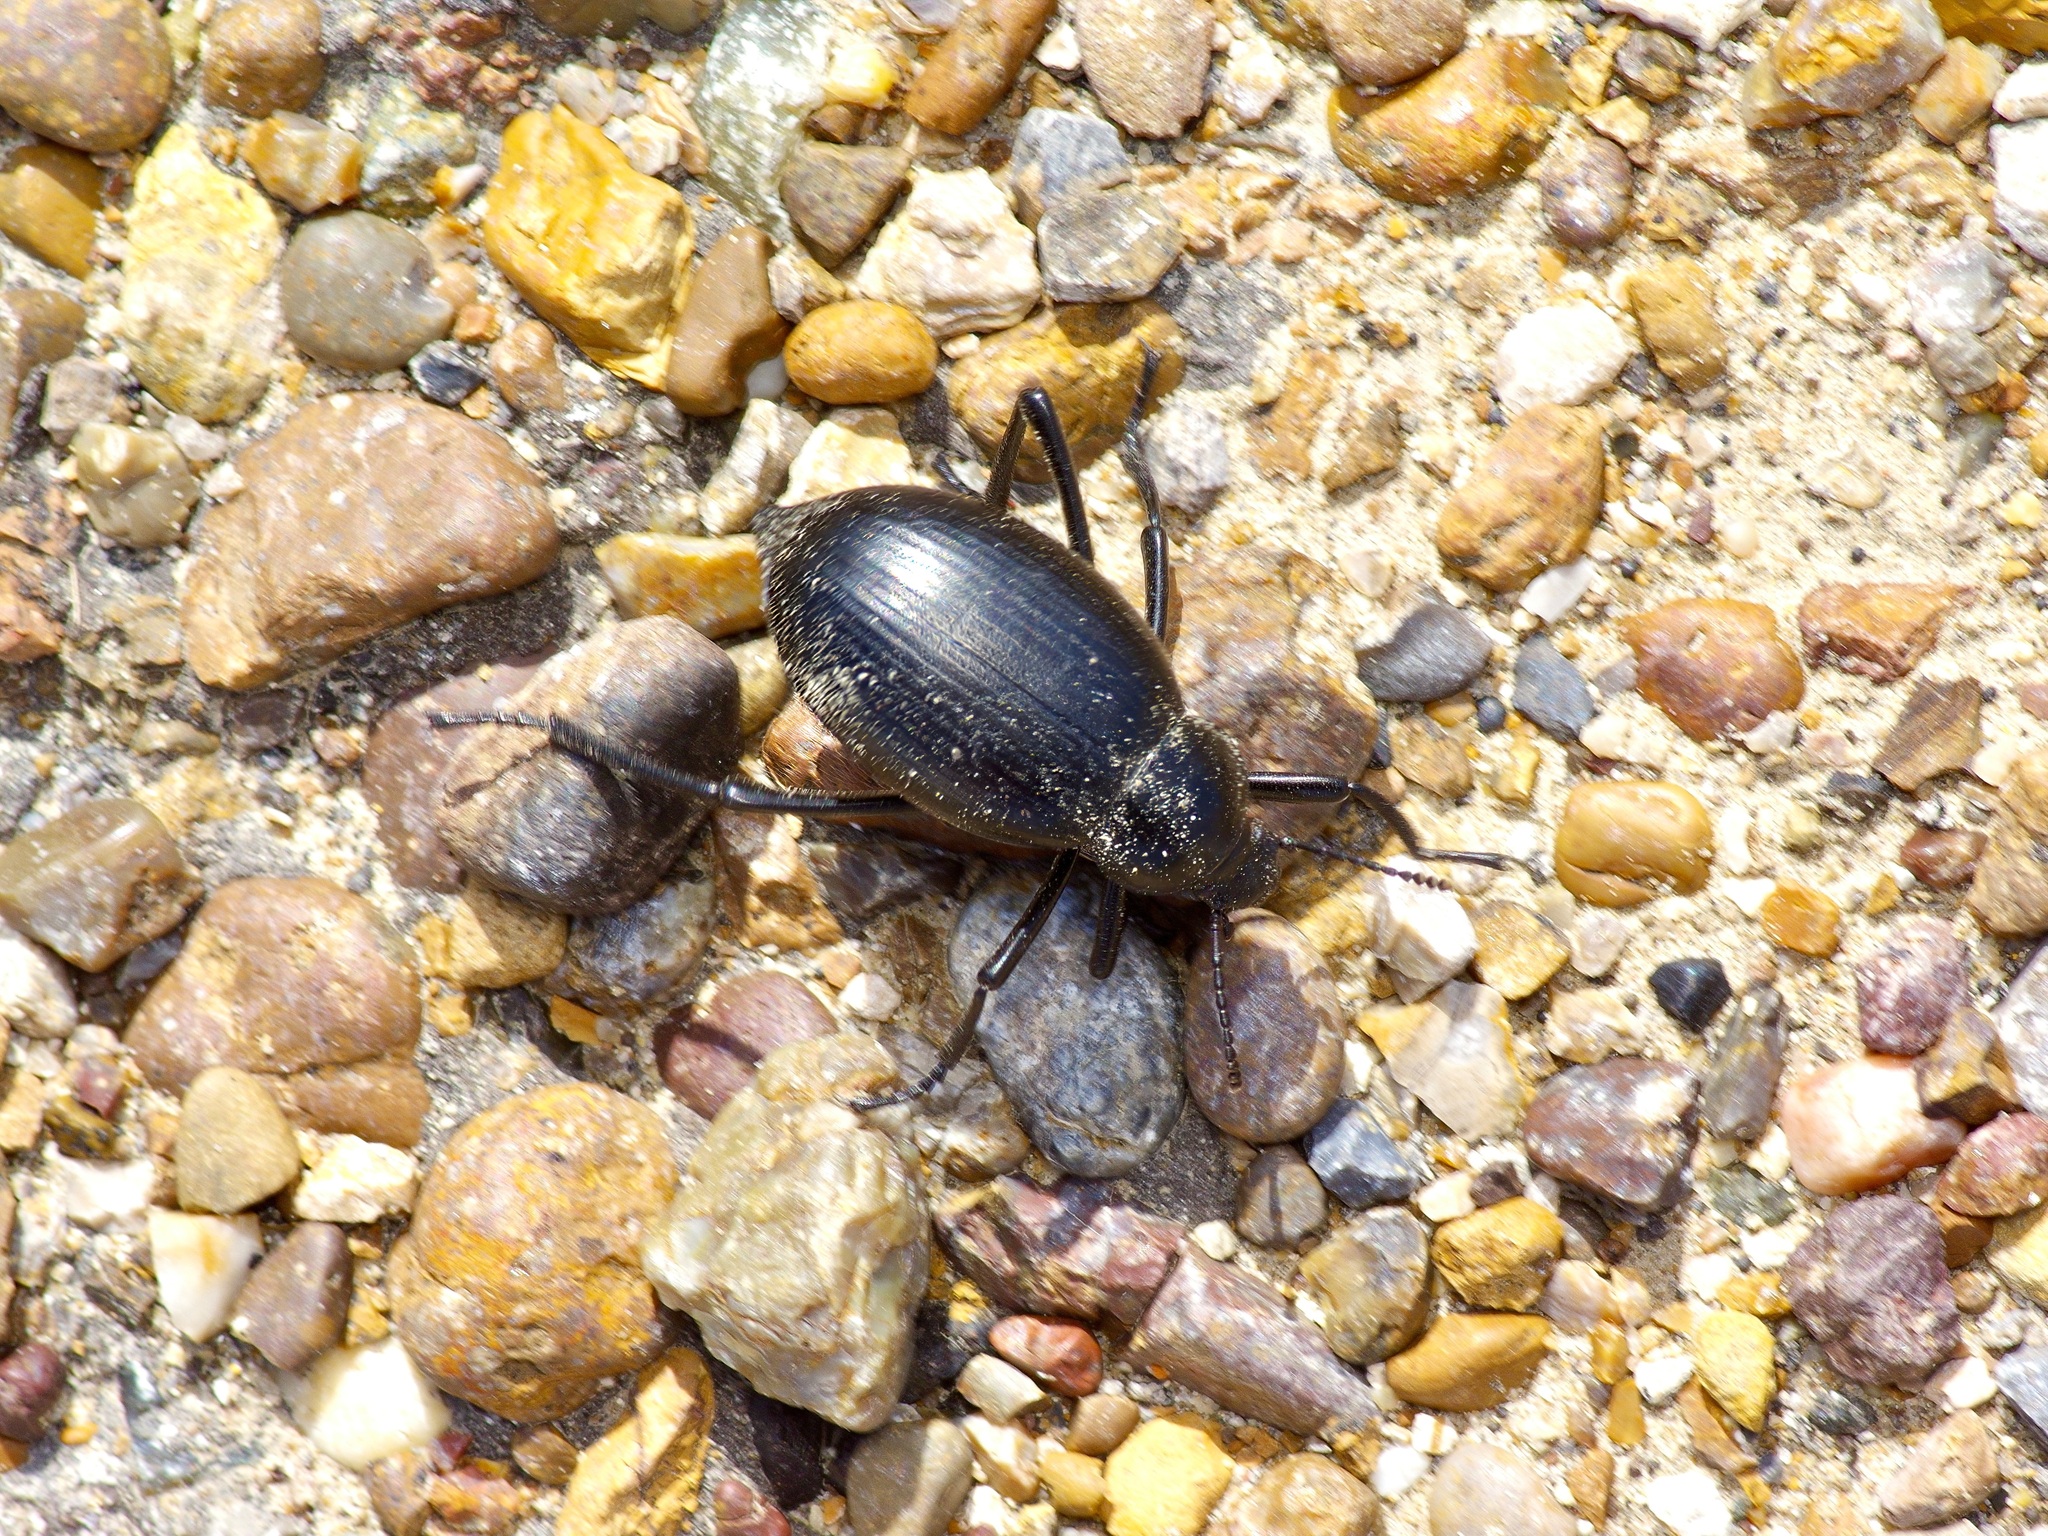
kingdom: Animalia
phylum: Arthropoda
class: Insecta
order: Coleoptera
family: Tenebrionidae
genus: Eleodes
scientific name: Eleodes spinipes
